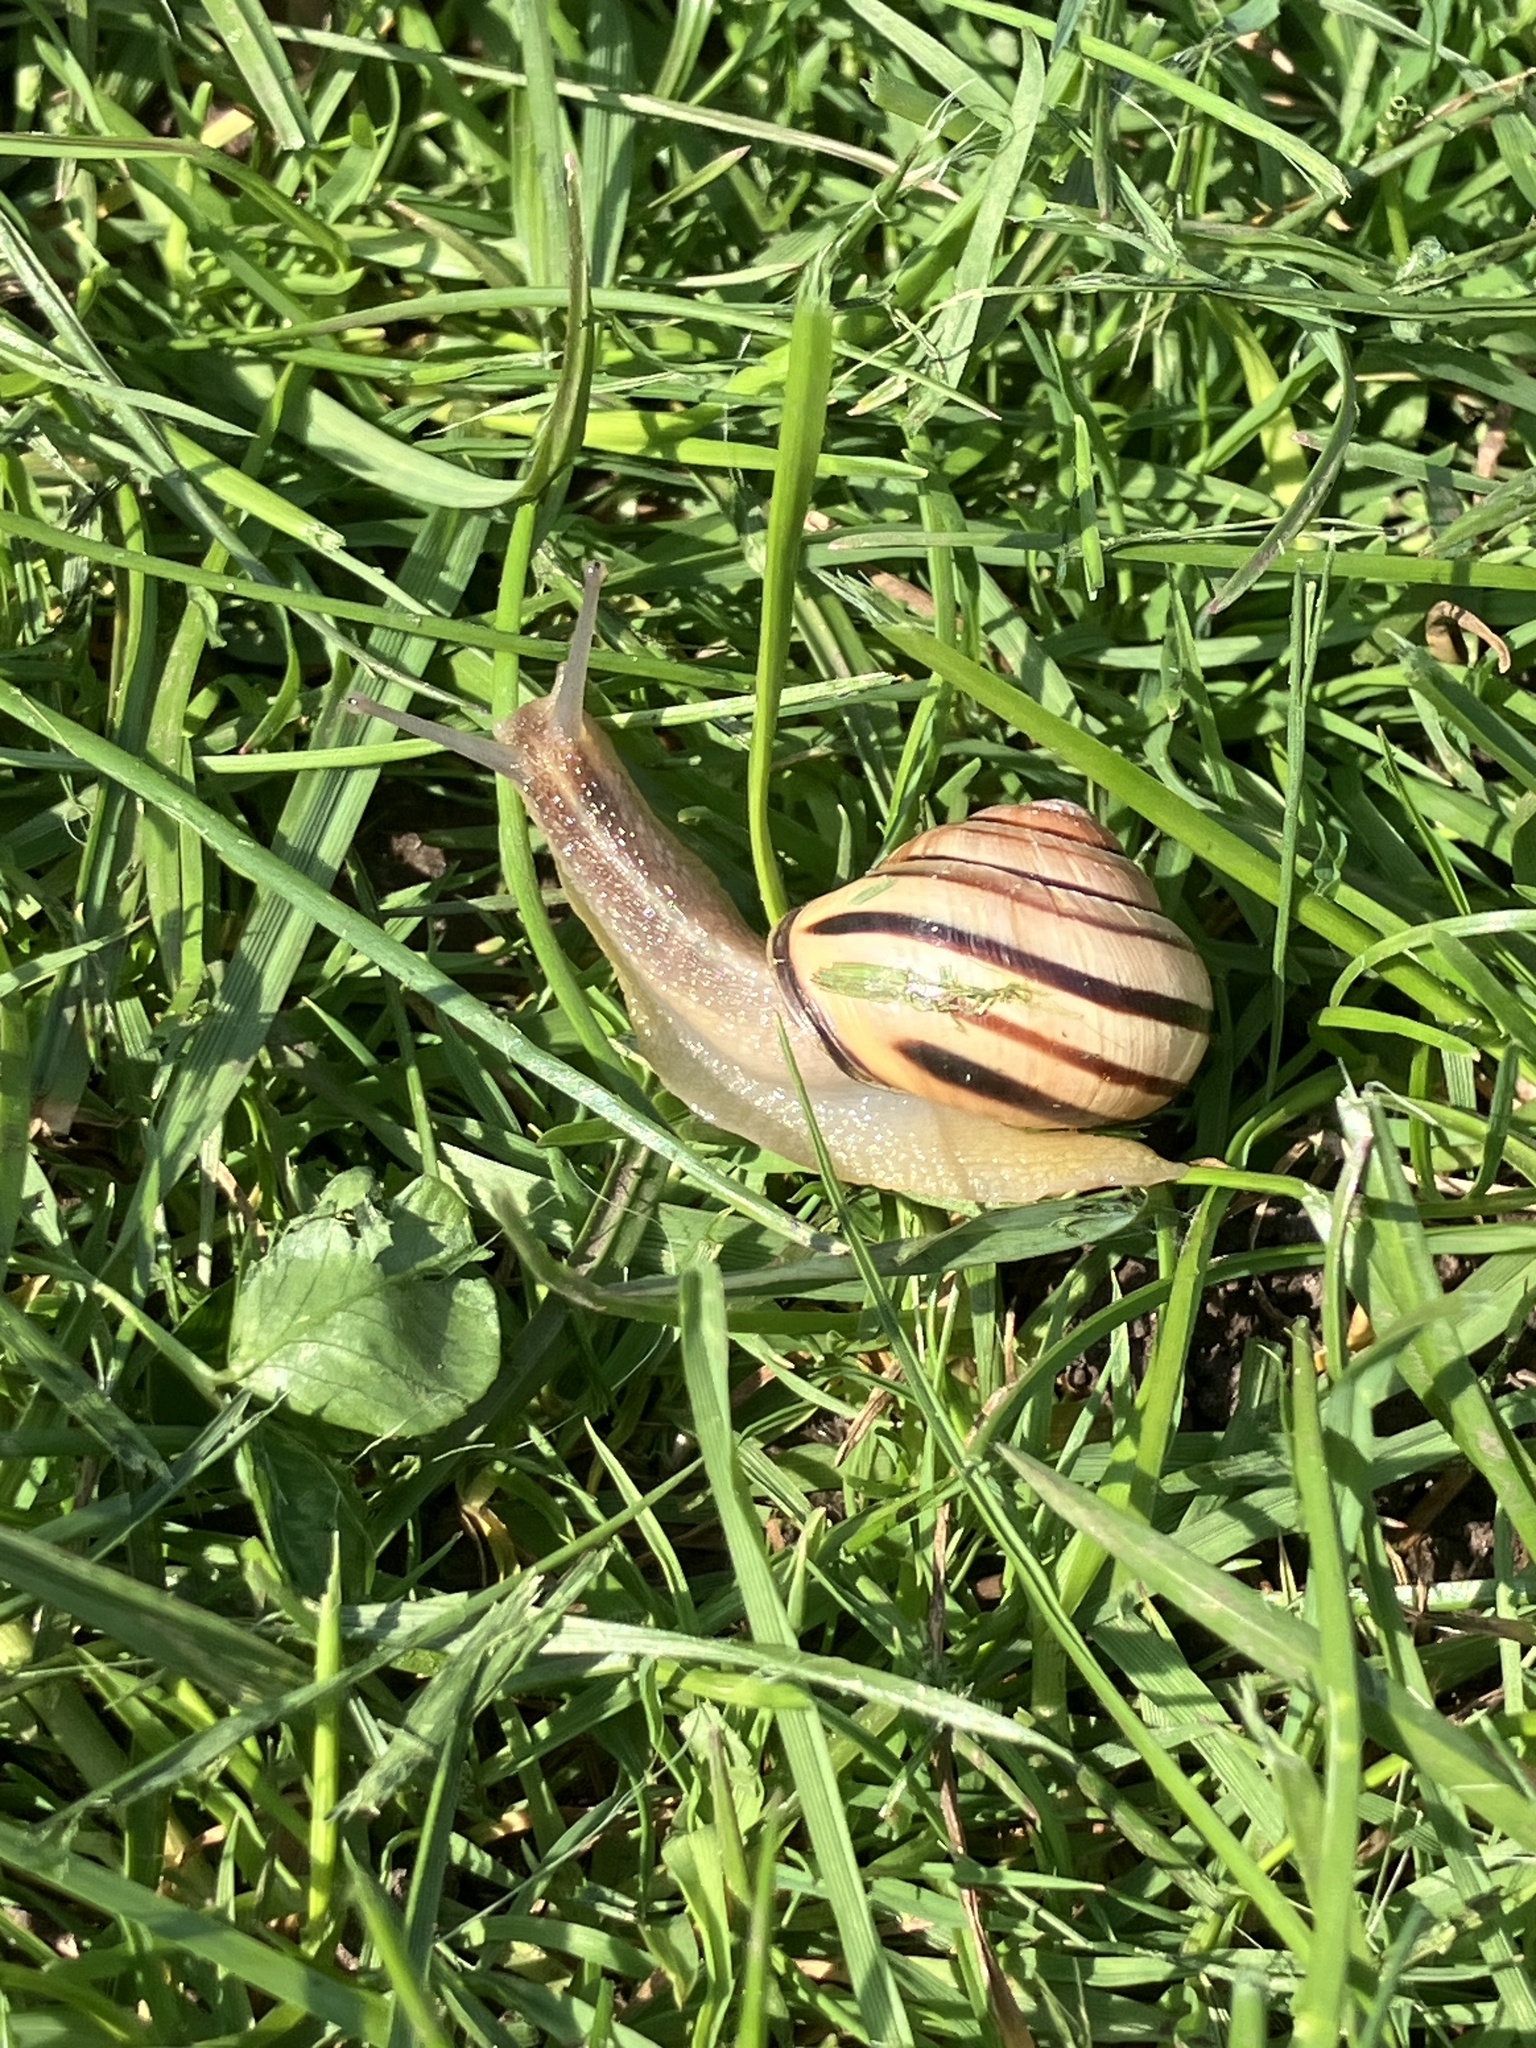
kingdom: Animalia
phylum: Mollusca
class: Gastropoda
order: Stylommatophora
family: Helicidae
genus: Cepaea
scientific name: Cepaea nemoralis
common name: Grovesnail
